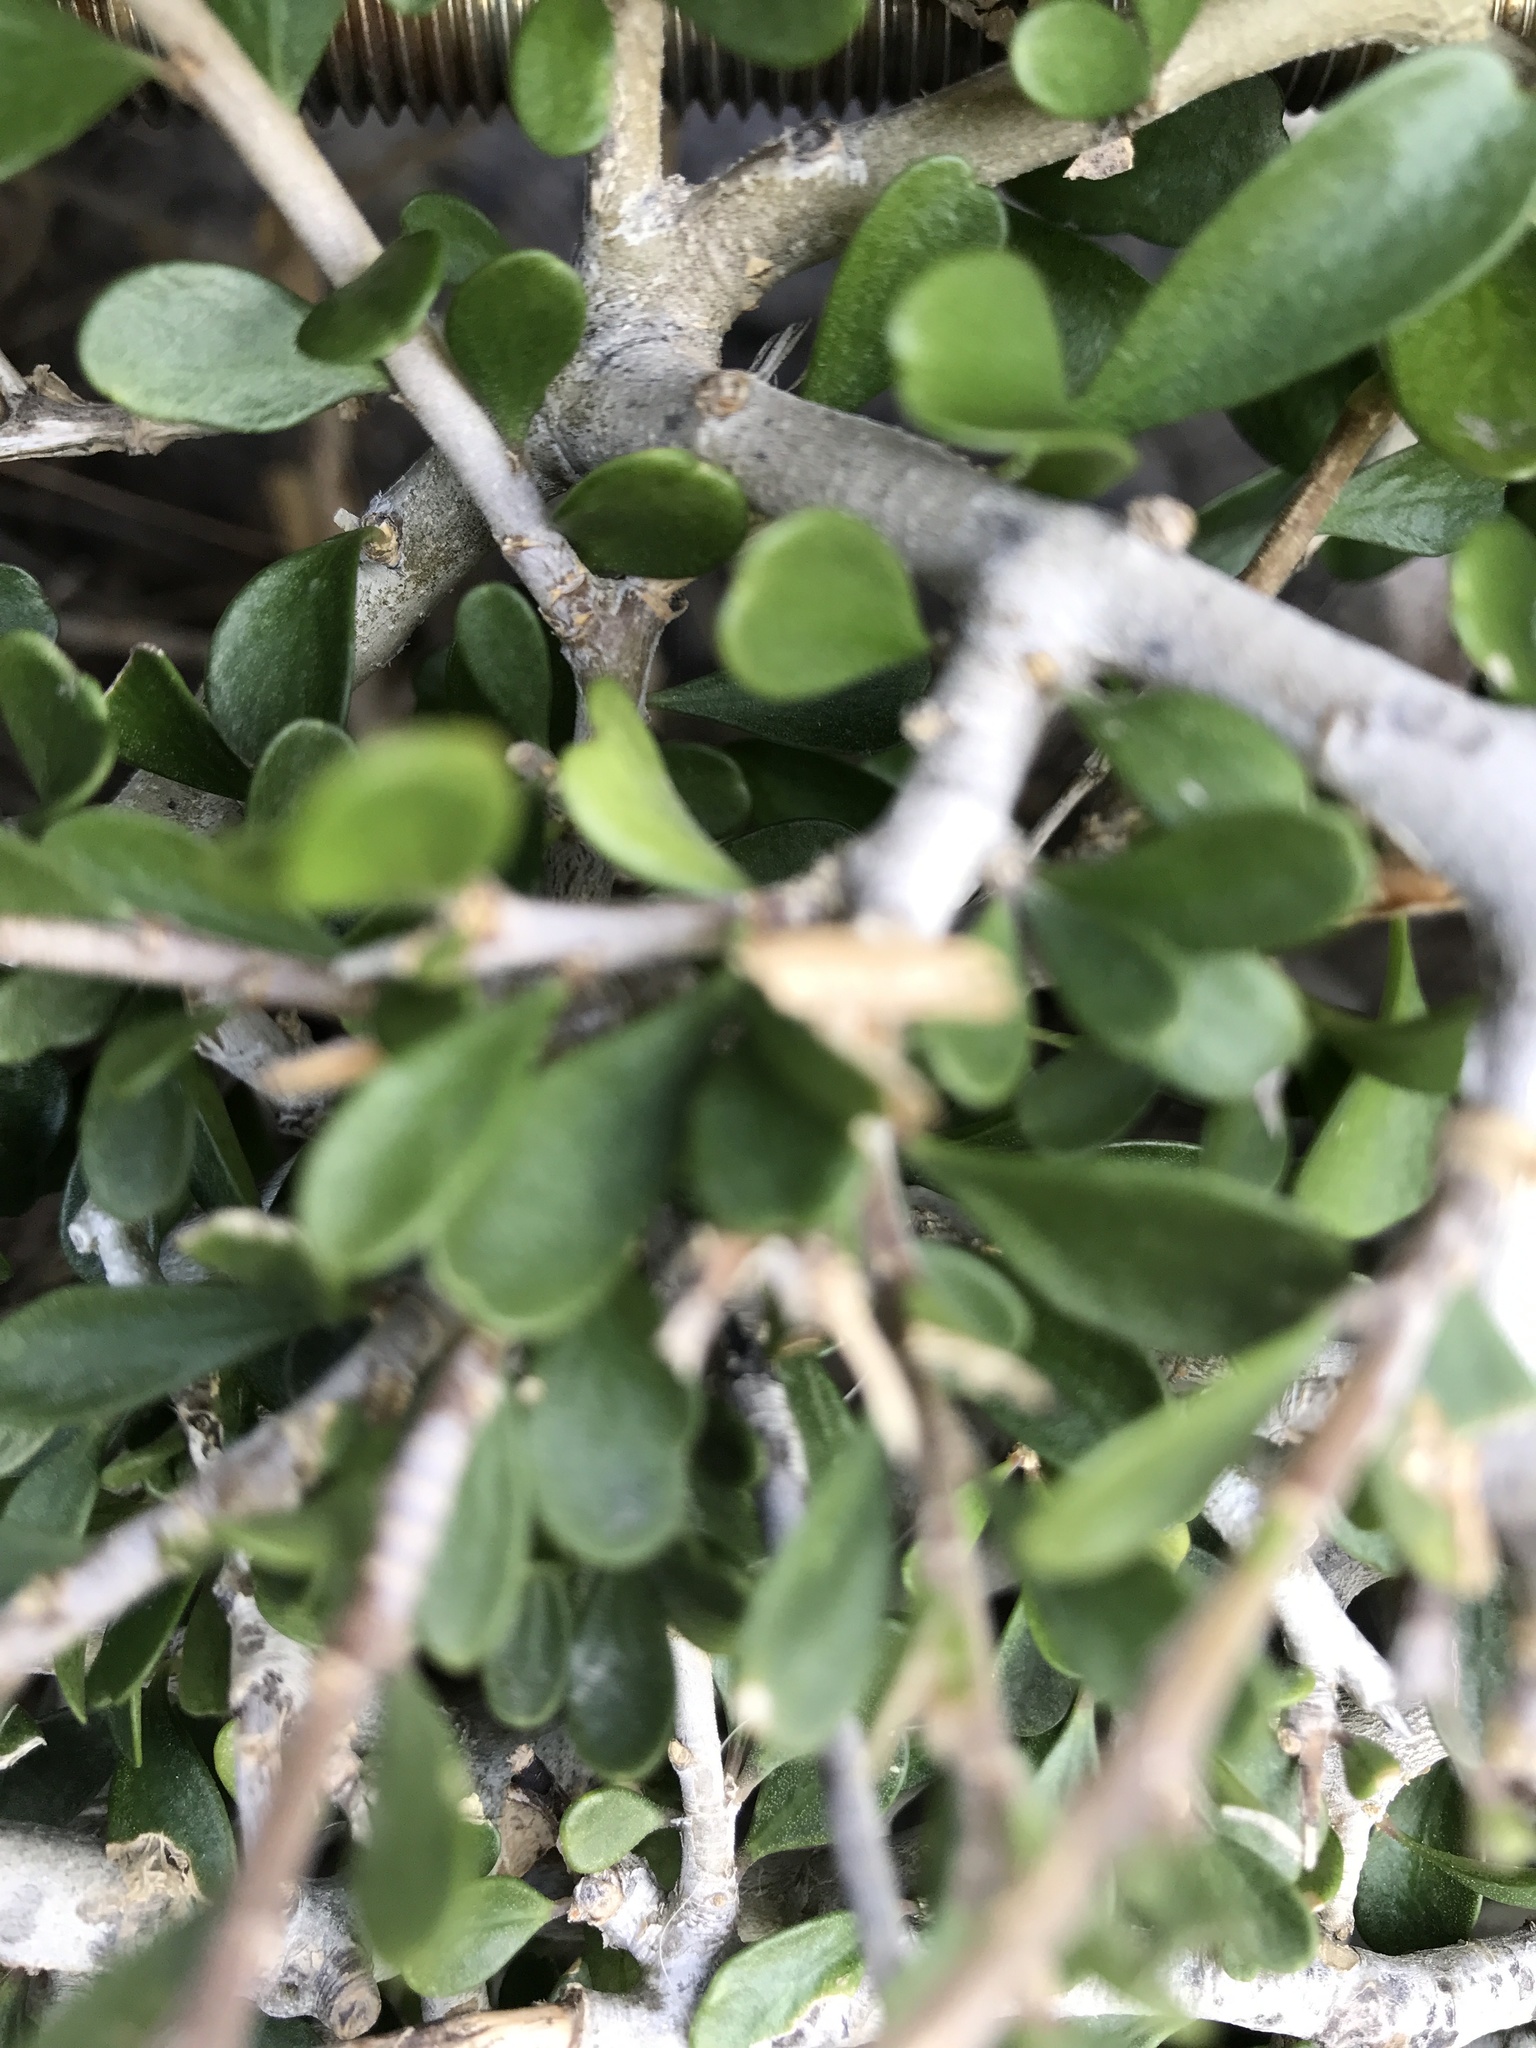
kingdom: Plantae
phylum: Tracheophyta
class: Magnoliopsida
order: Malpighiales
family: Violaceae
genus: Melicytus
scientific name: Melicytus crassifolius
